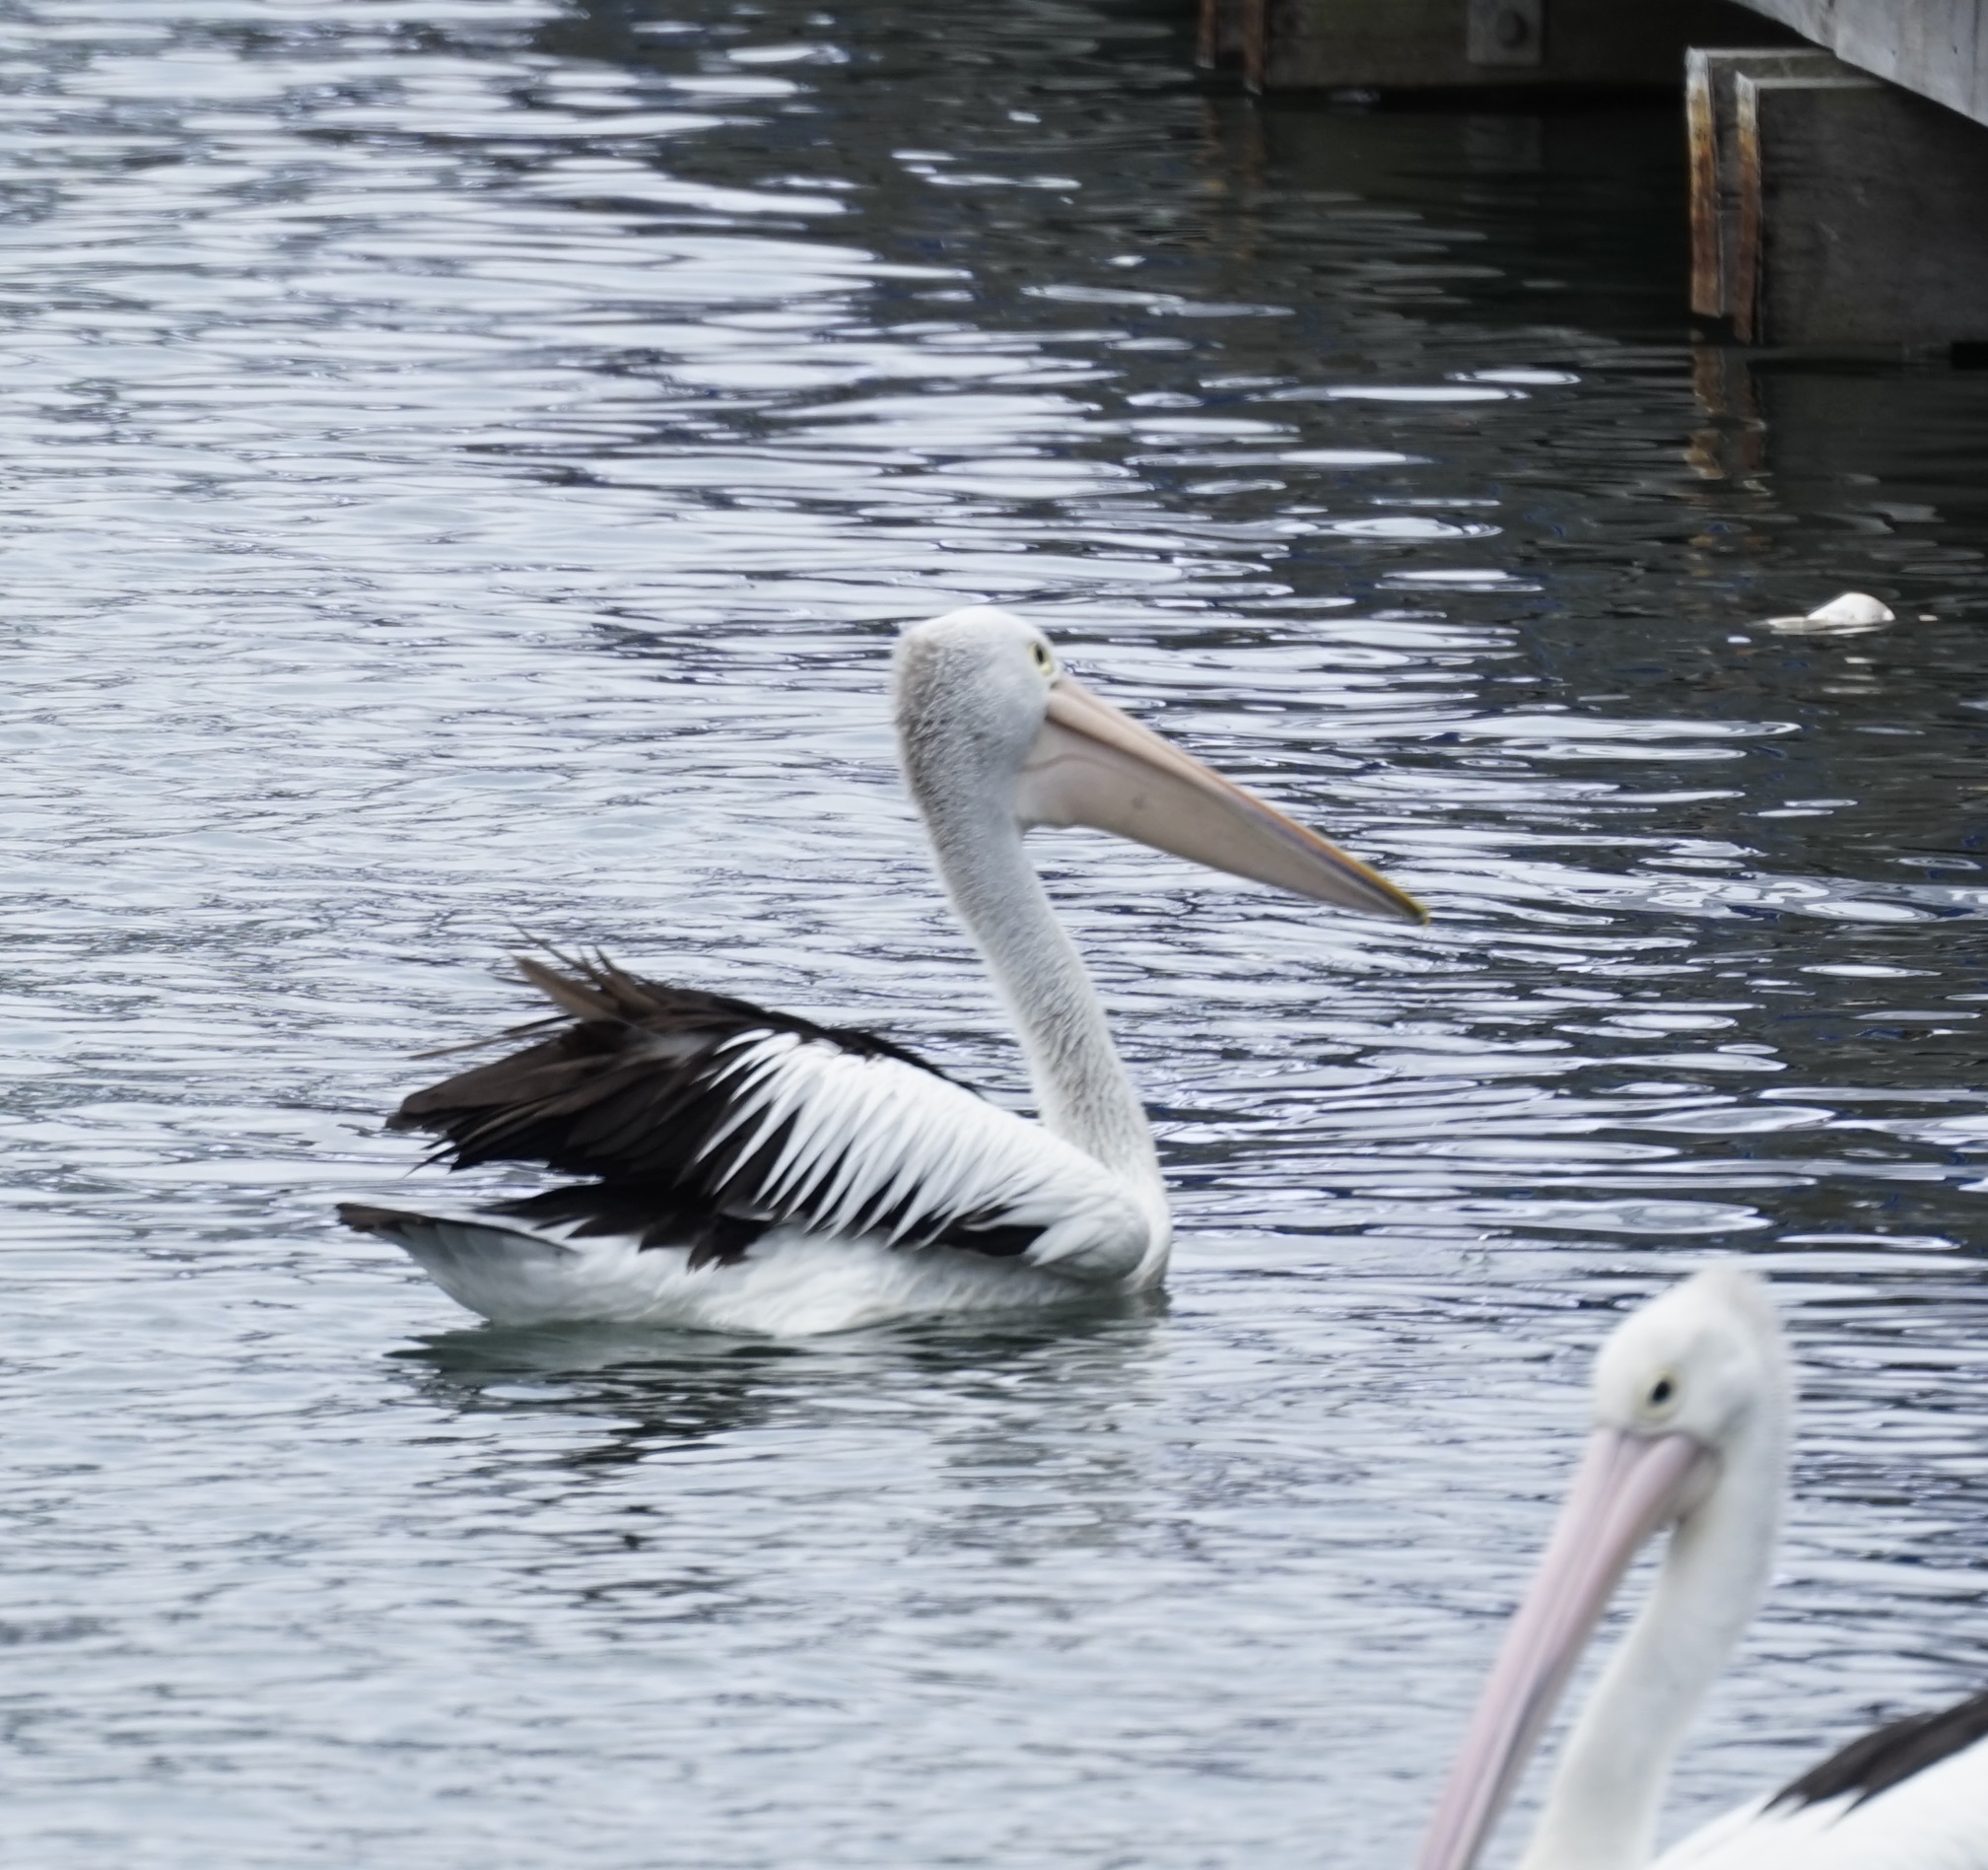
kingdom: Animalia
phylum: Chordata
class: Aves
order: Pelecaniformes
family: Pelecanidae
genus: Pelecanus
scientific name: Pelecanus conspicillatus
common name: Australian pelican
